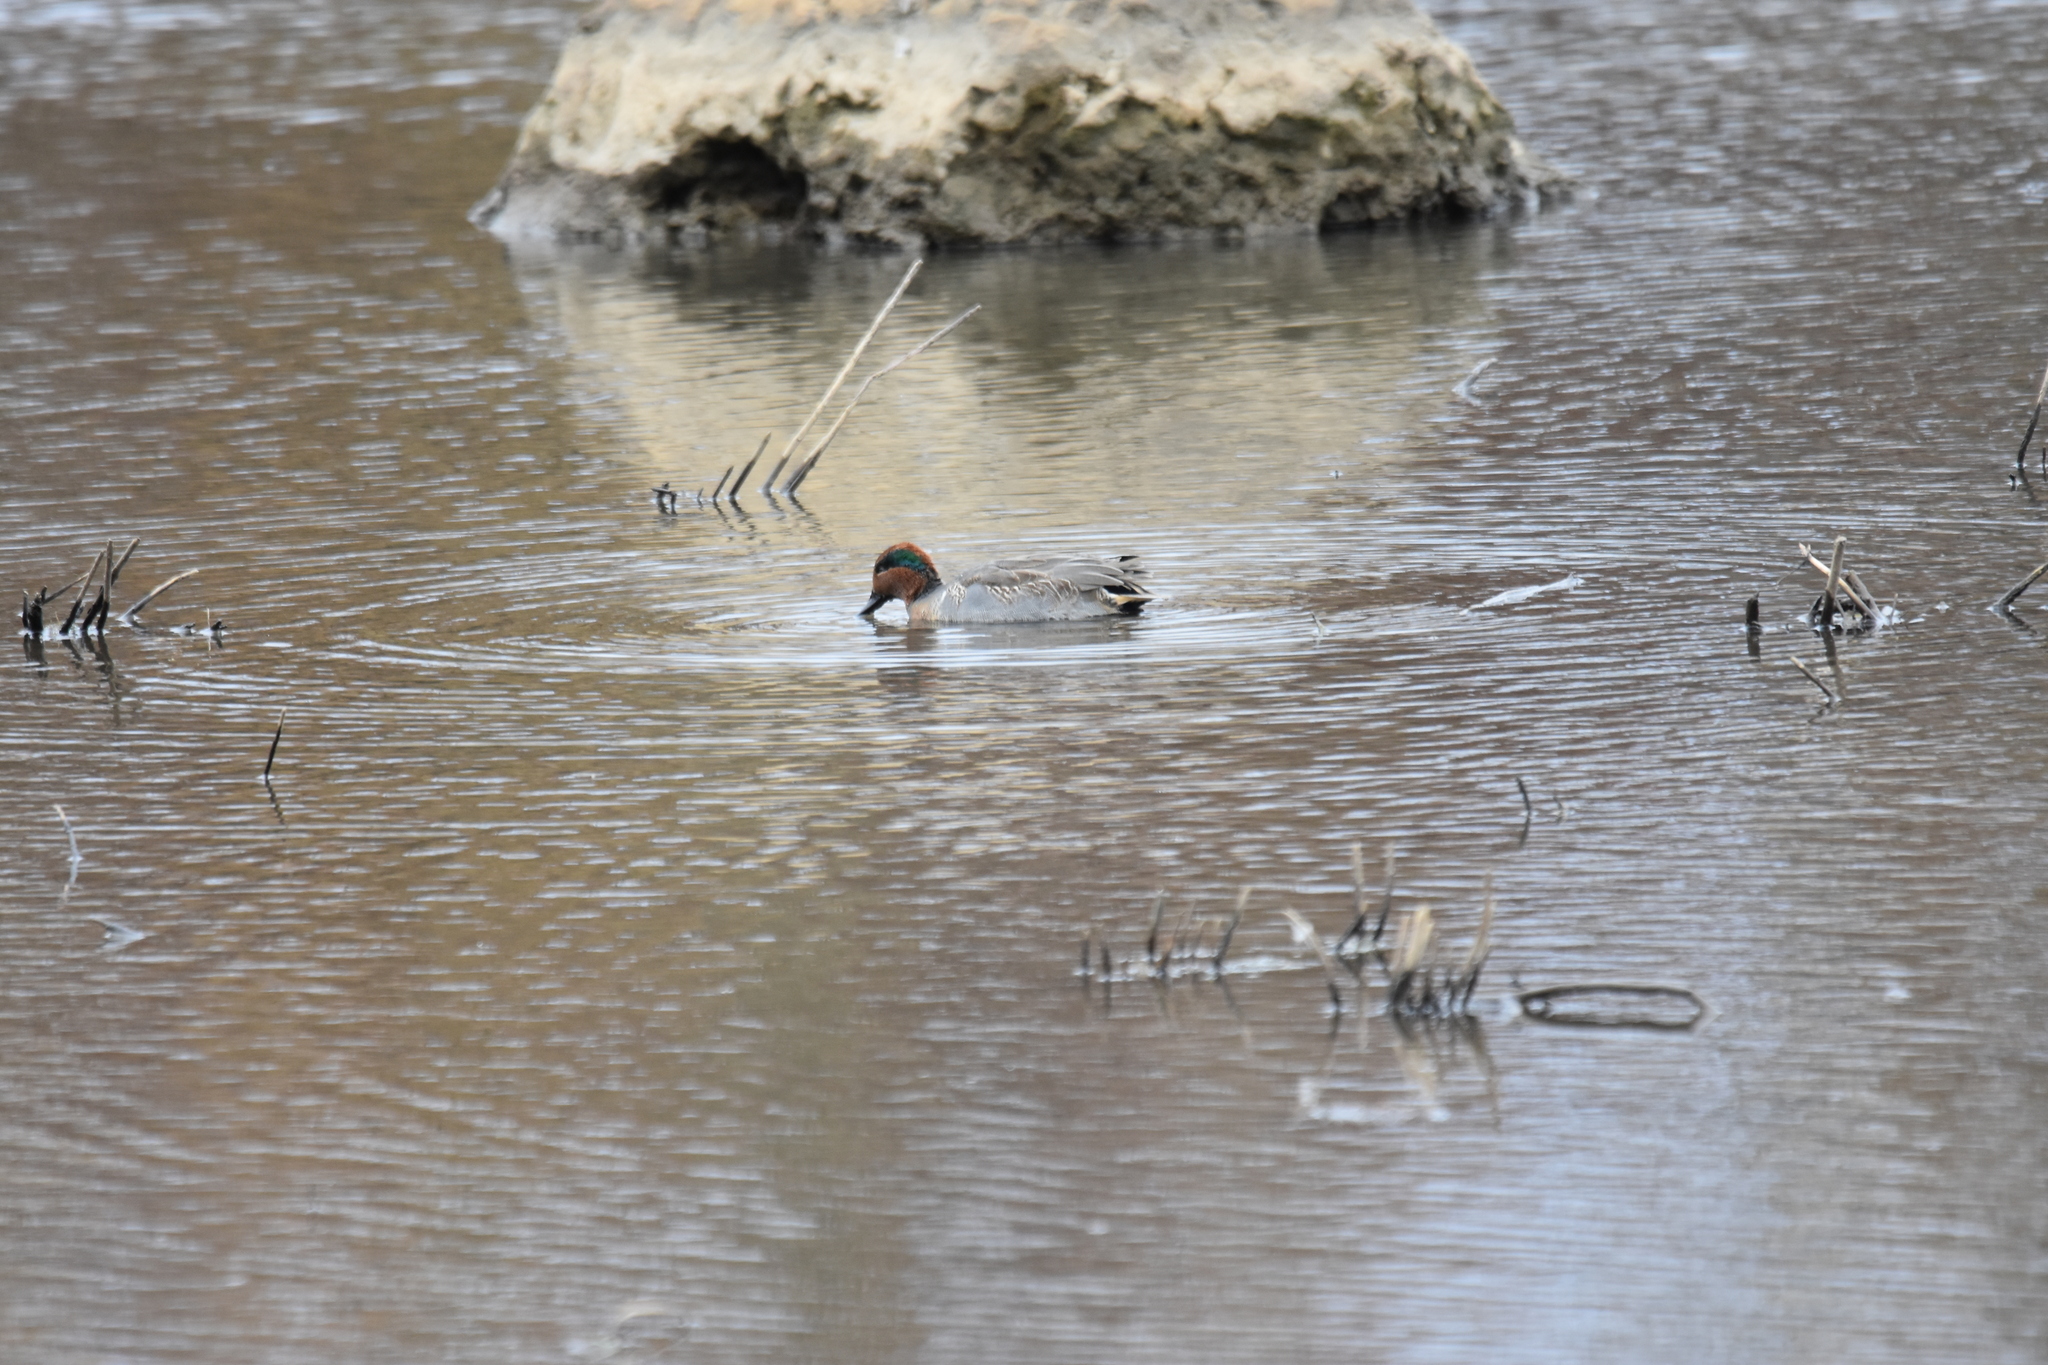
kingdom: Animalia
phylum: Chordata
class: Aves
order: Anseriformes
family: Anatidae
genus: Anas
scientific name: Anas carolinensis
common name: Green-winged teal
